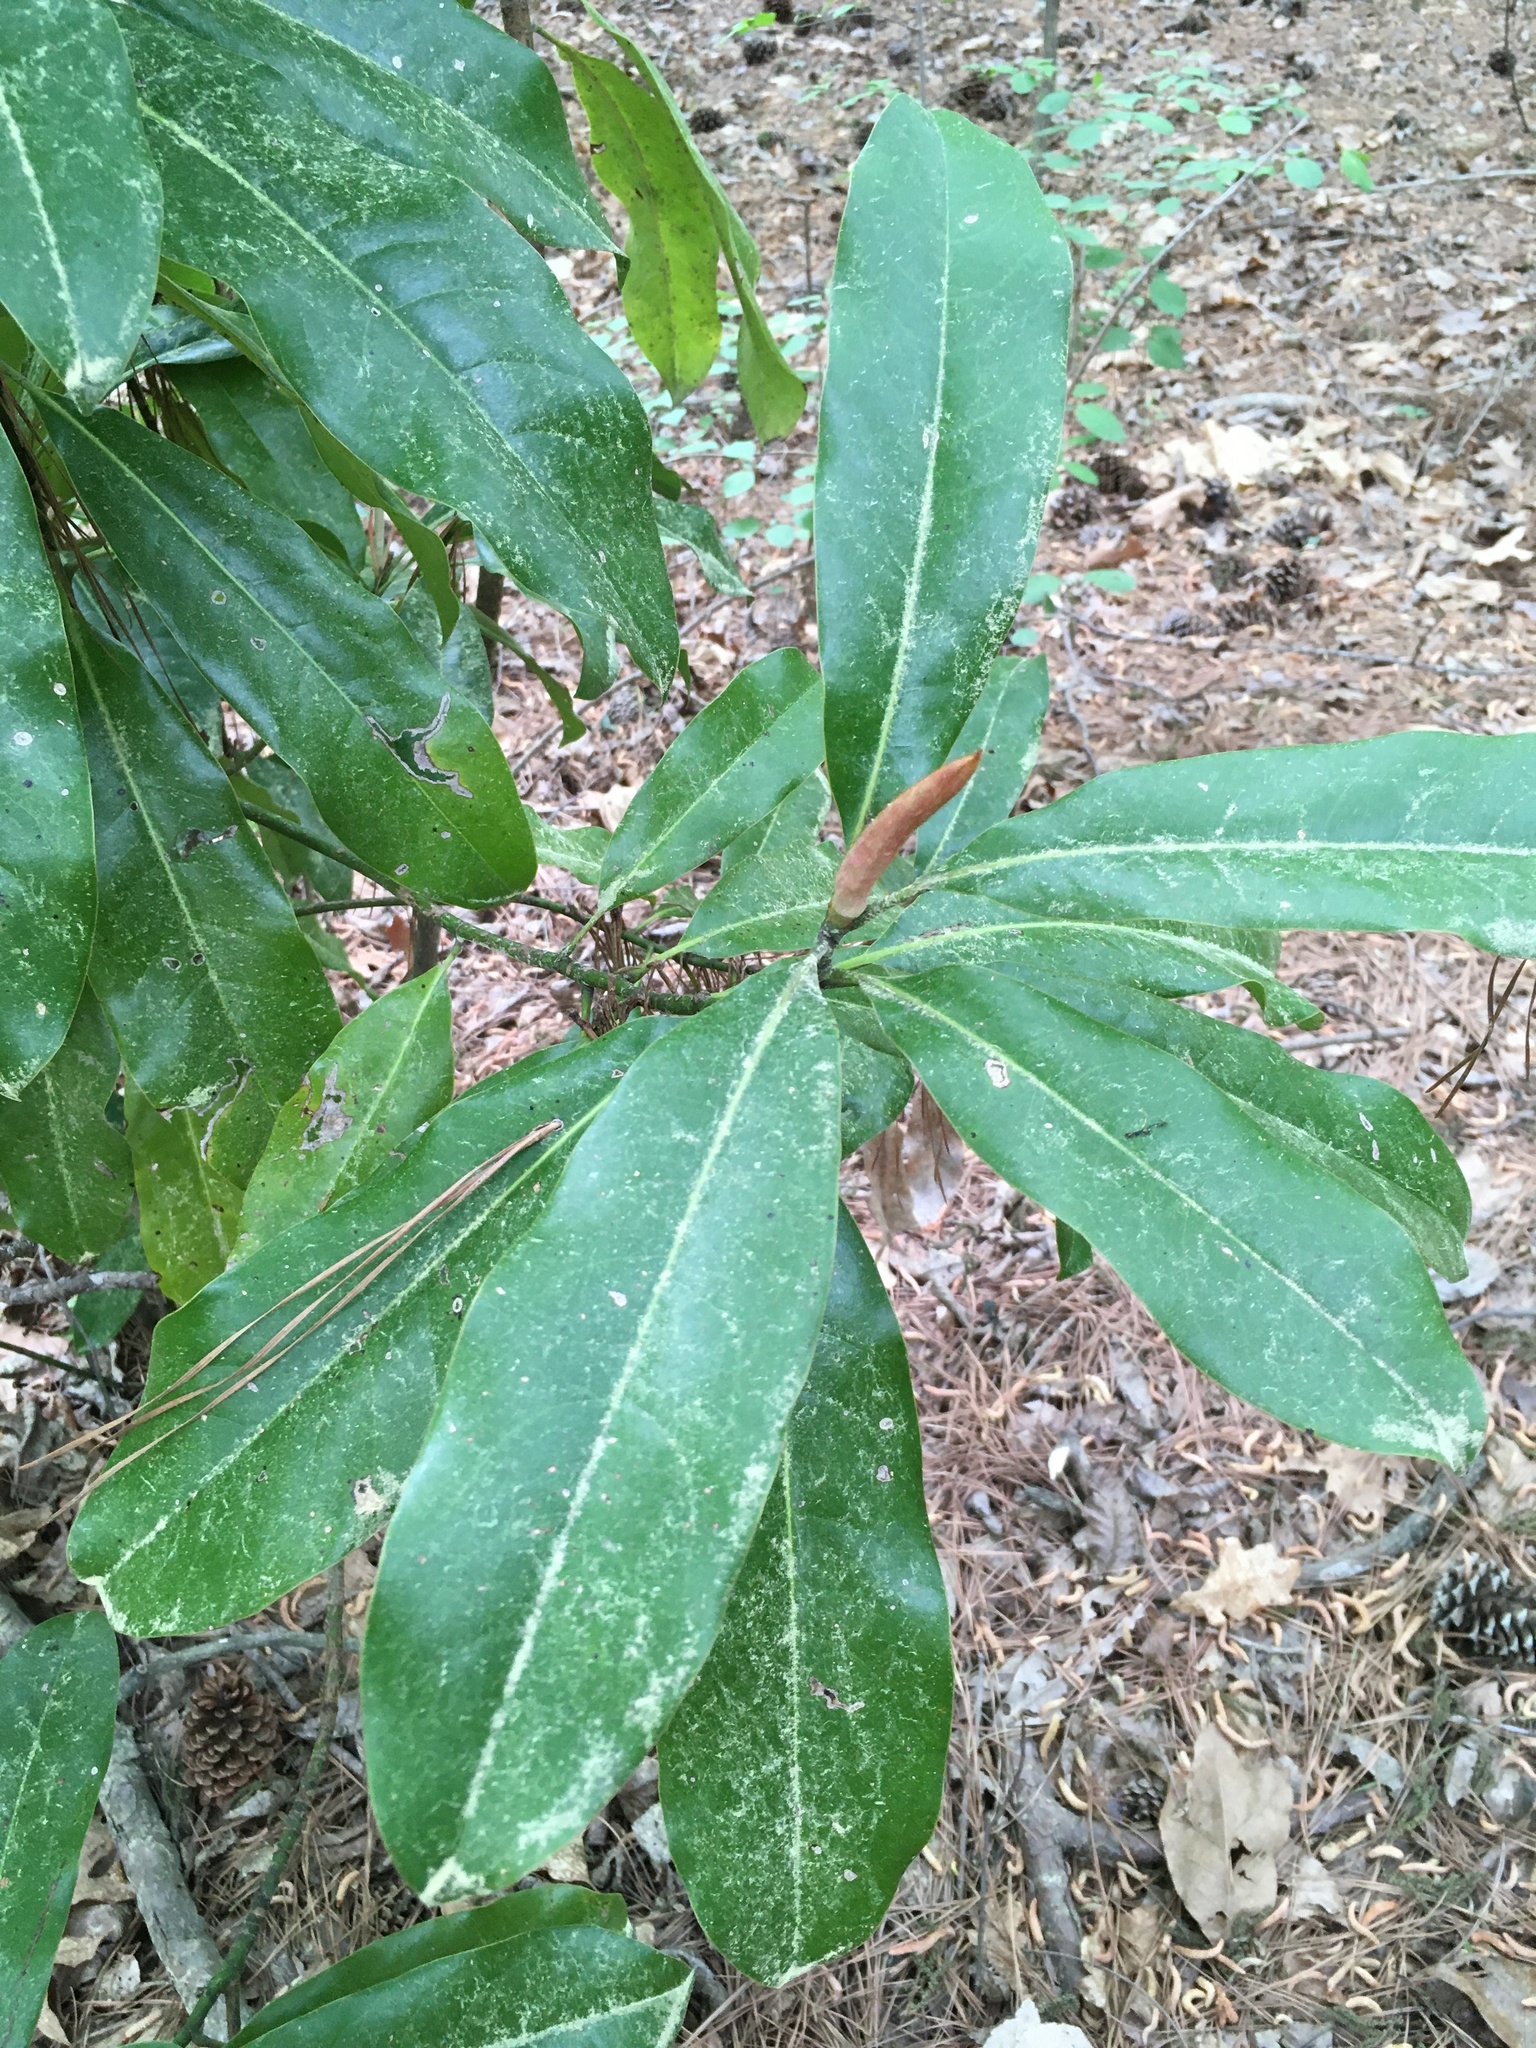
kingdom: Plantae
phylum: Tracheophyta
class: Magnoliopsida
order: Magnoliales
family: Magnoliaceae
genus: Magnolia
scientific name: Magnolia grandiflora
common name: Southern magnolia
